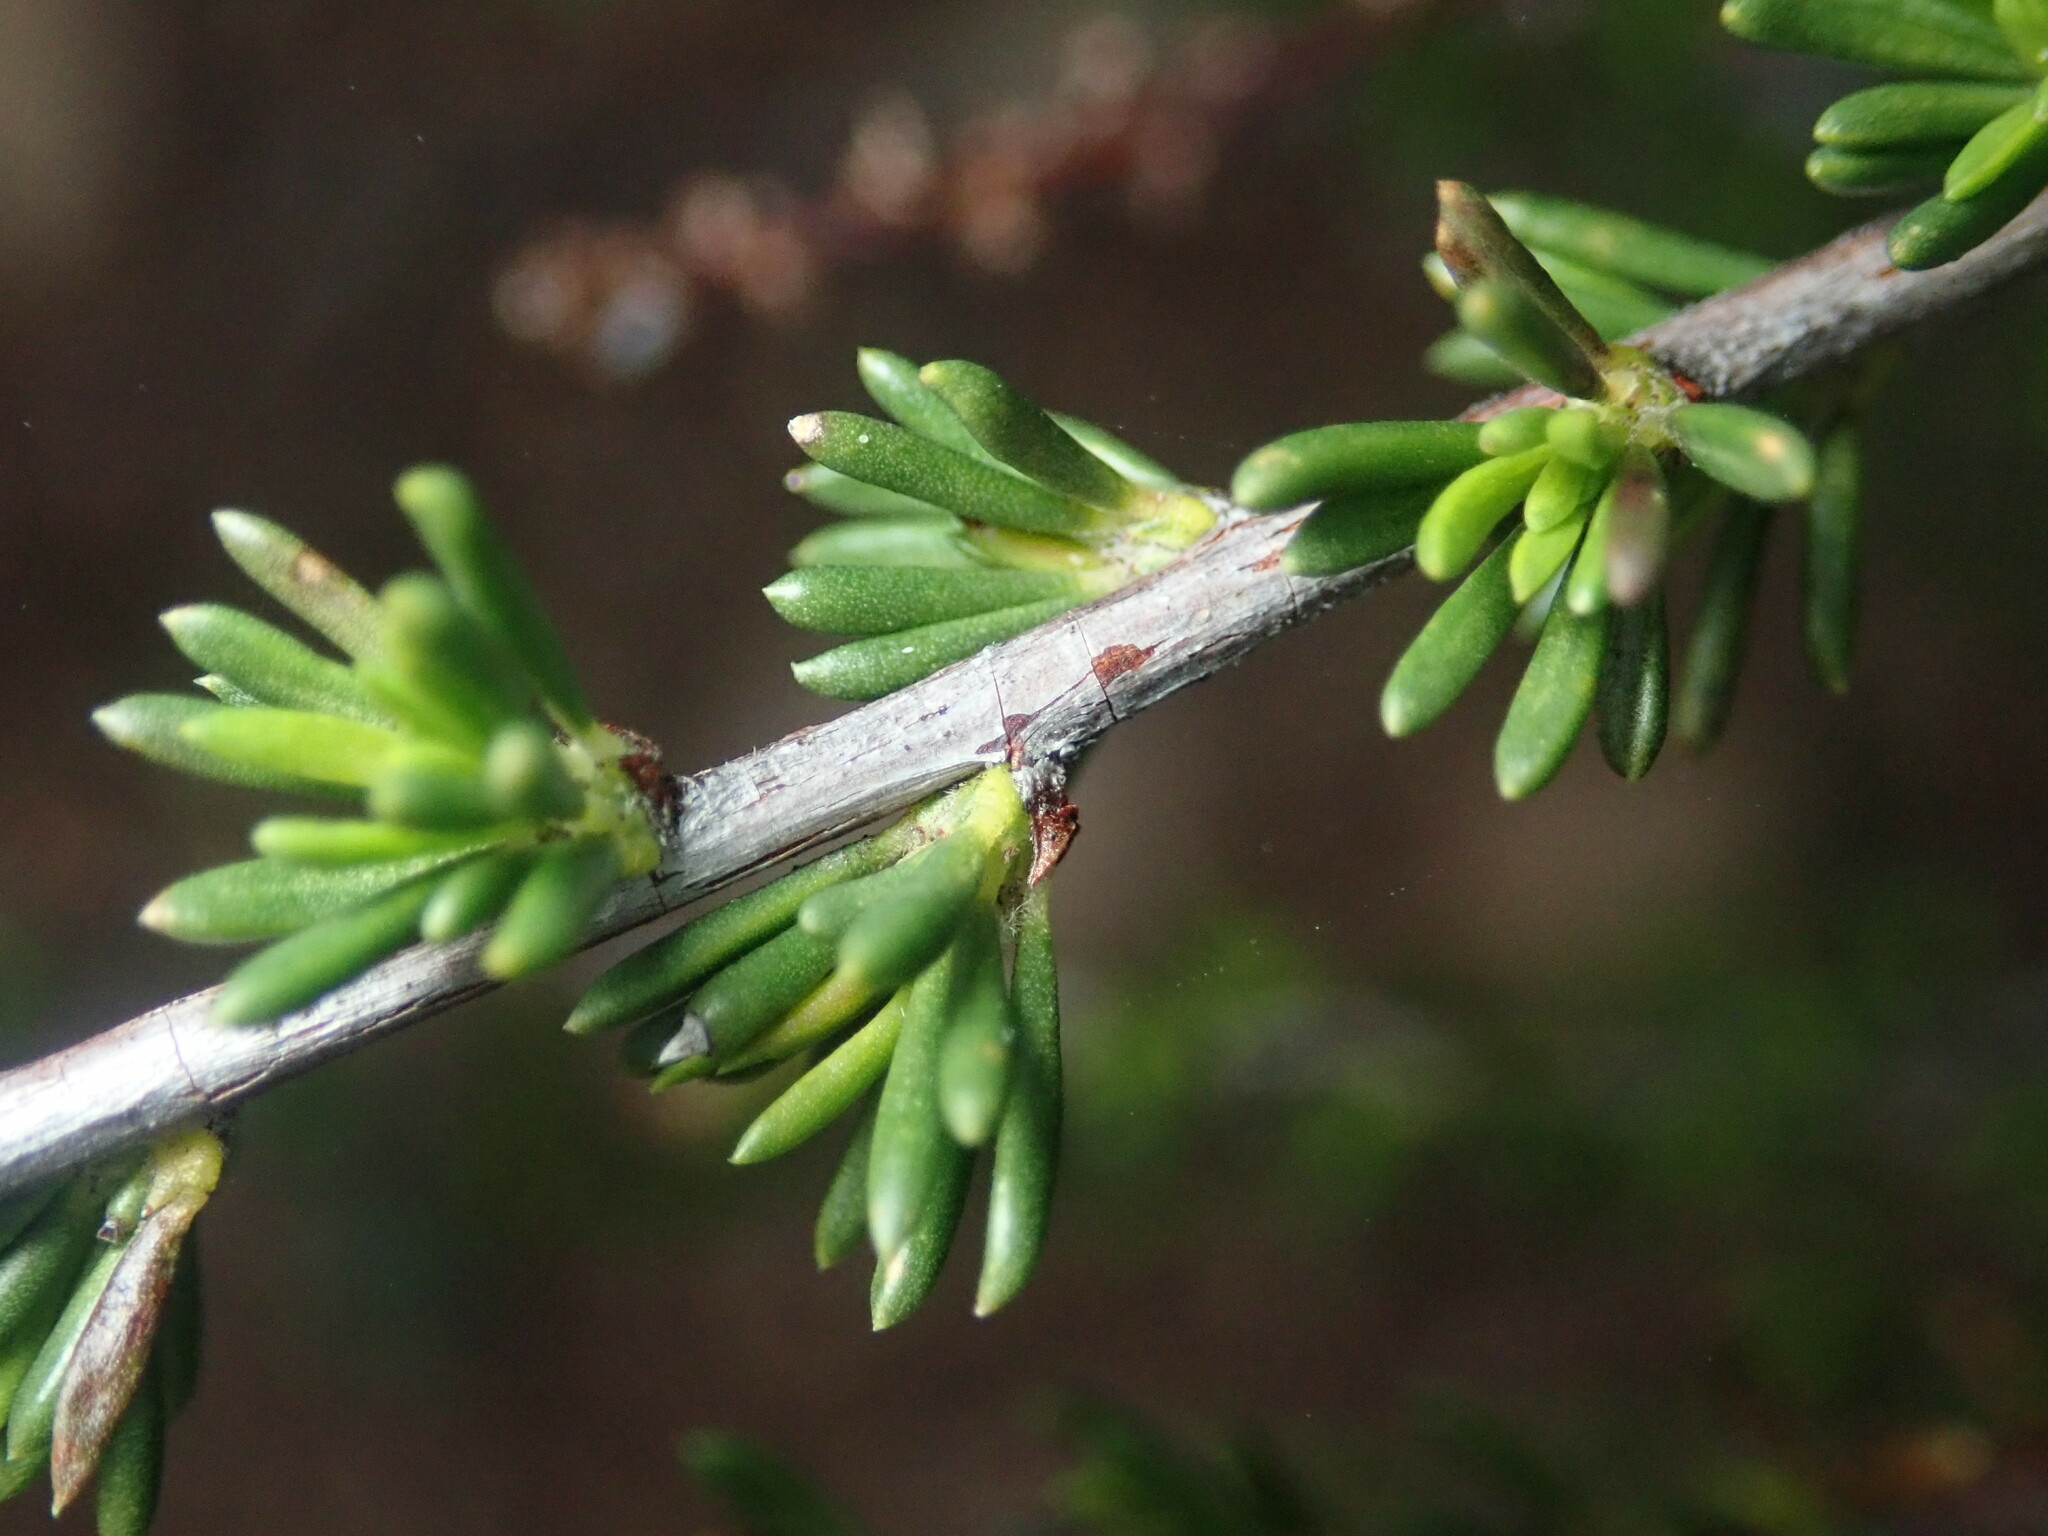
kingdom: Plantae
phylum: Tracheophyta
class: Magnoliopsida
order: Rosales
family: Rosaceae
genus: Adenostoma
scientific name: Adenostoma fasciculatum
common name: Chamise
